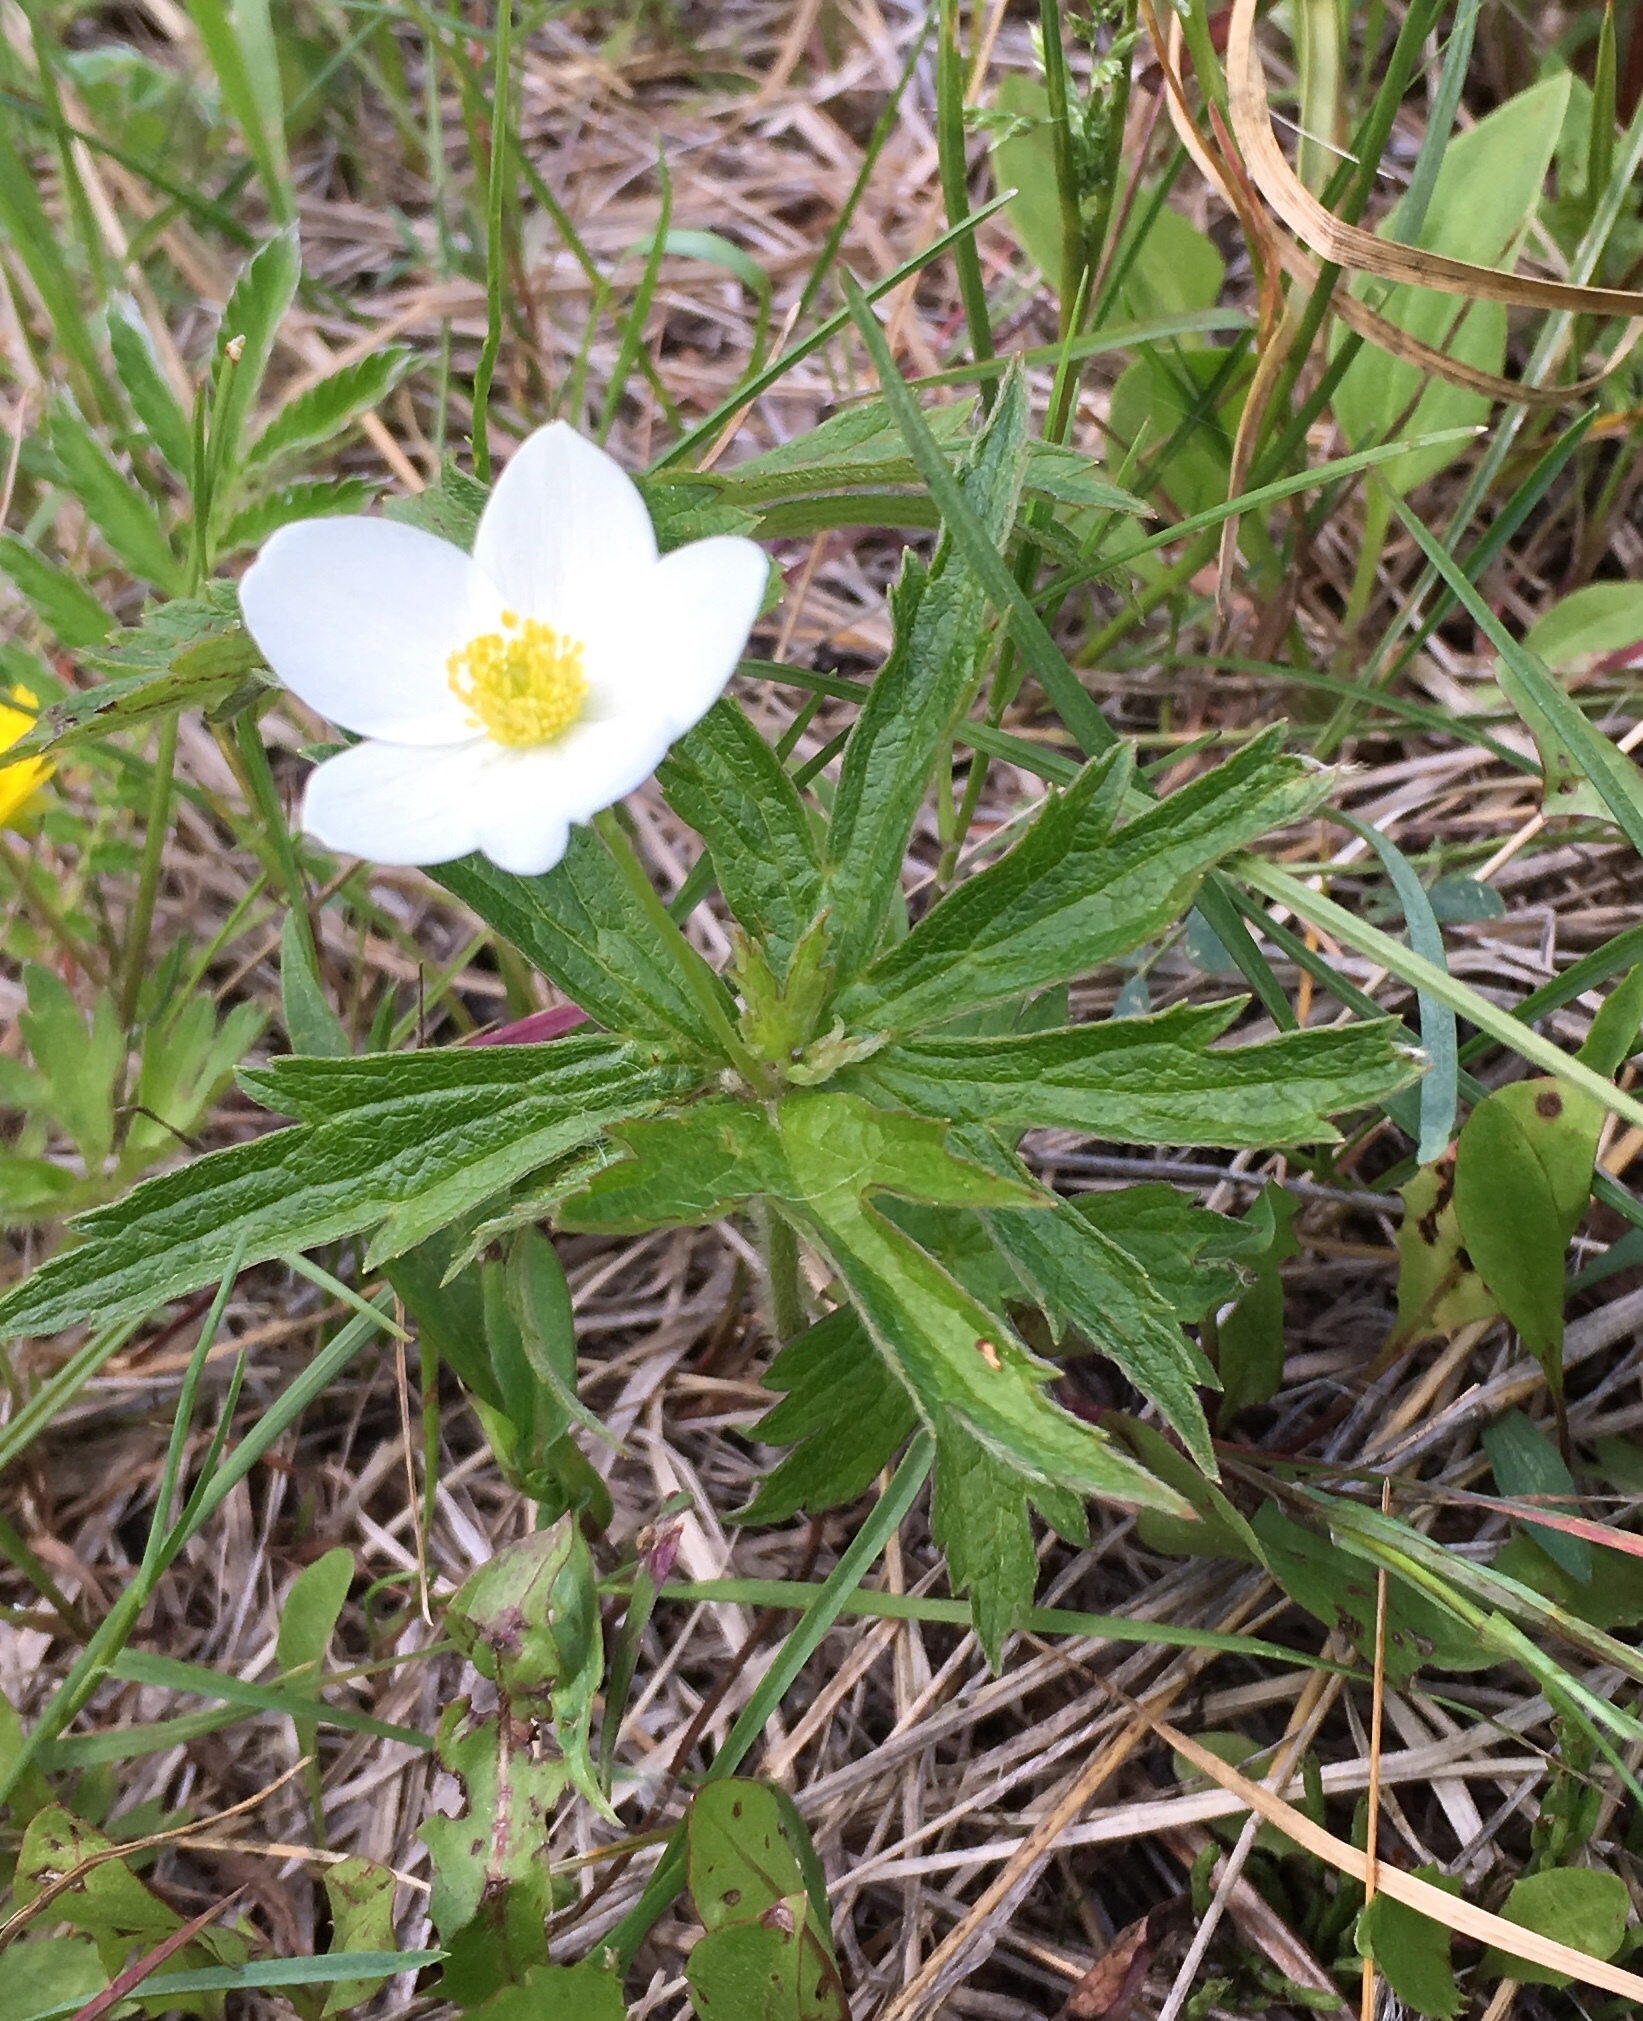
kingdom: Plantae
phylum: Tracheophyta
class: Magnoliopsida
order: Ranunculales
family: Ranunculaceae
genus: Anemonastrum
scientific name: Anemonastrum canadense
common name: Canada anemone
